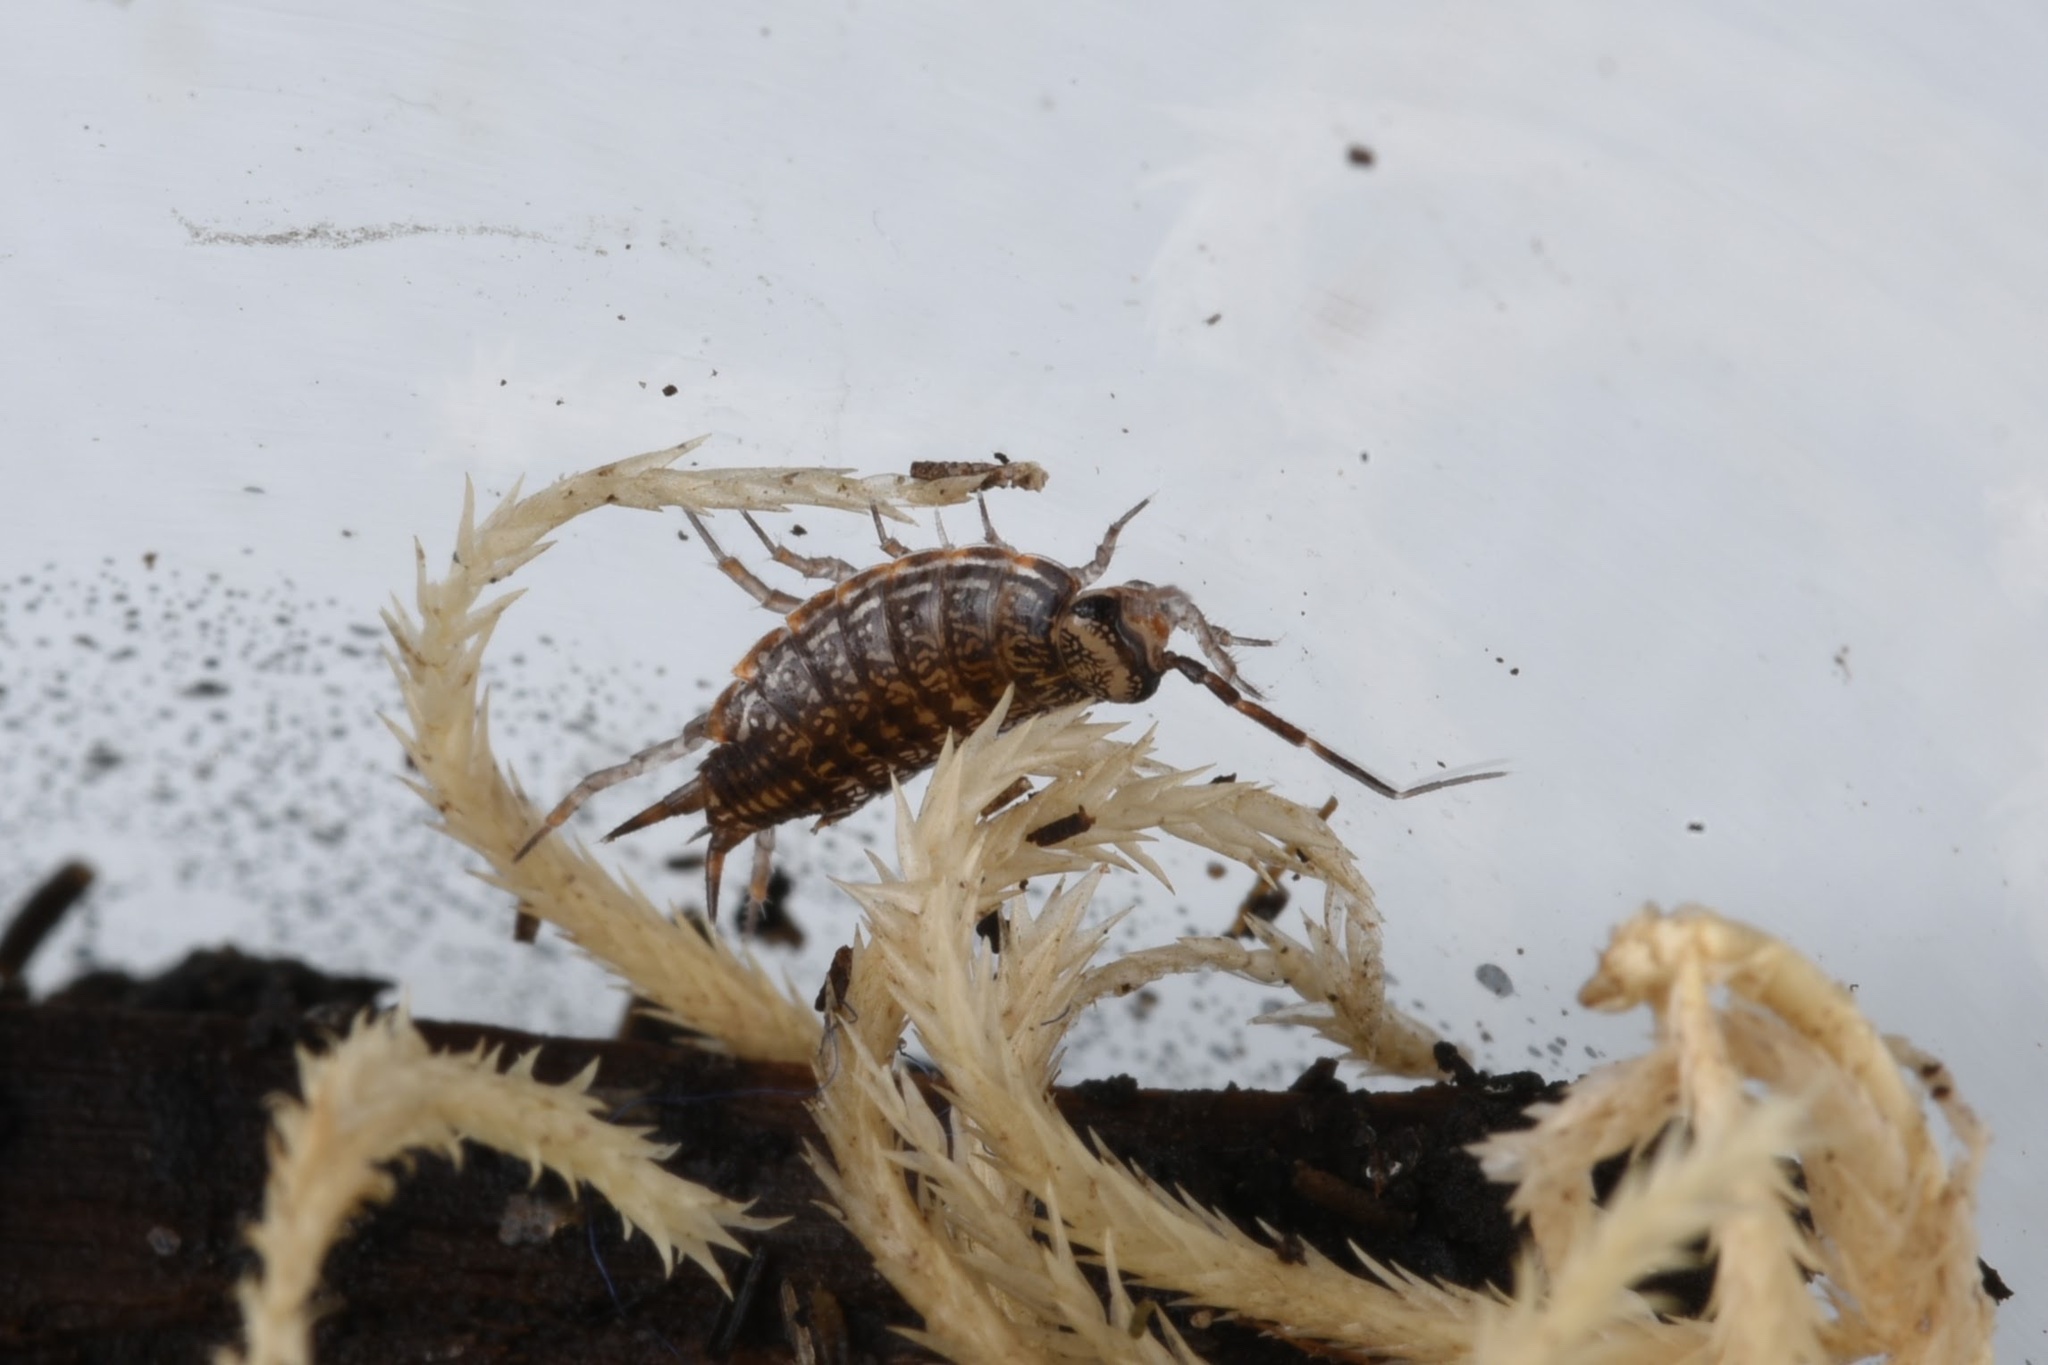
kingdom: Animalia
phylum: Arthropoda
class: Malacostraca
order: Isopoda
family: Philosciidae
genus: Atlantoscia
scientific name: Atlantoscia floridana
